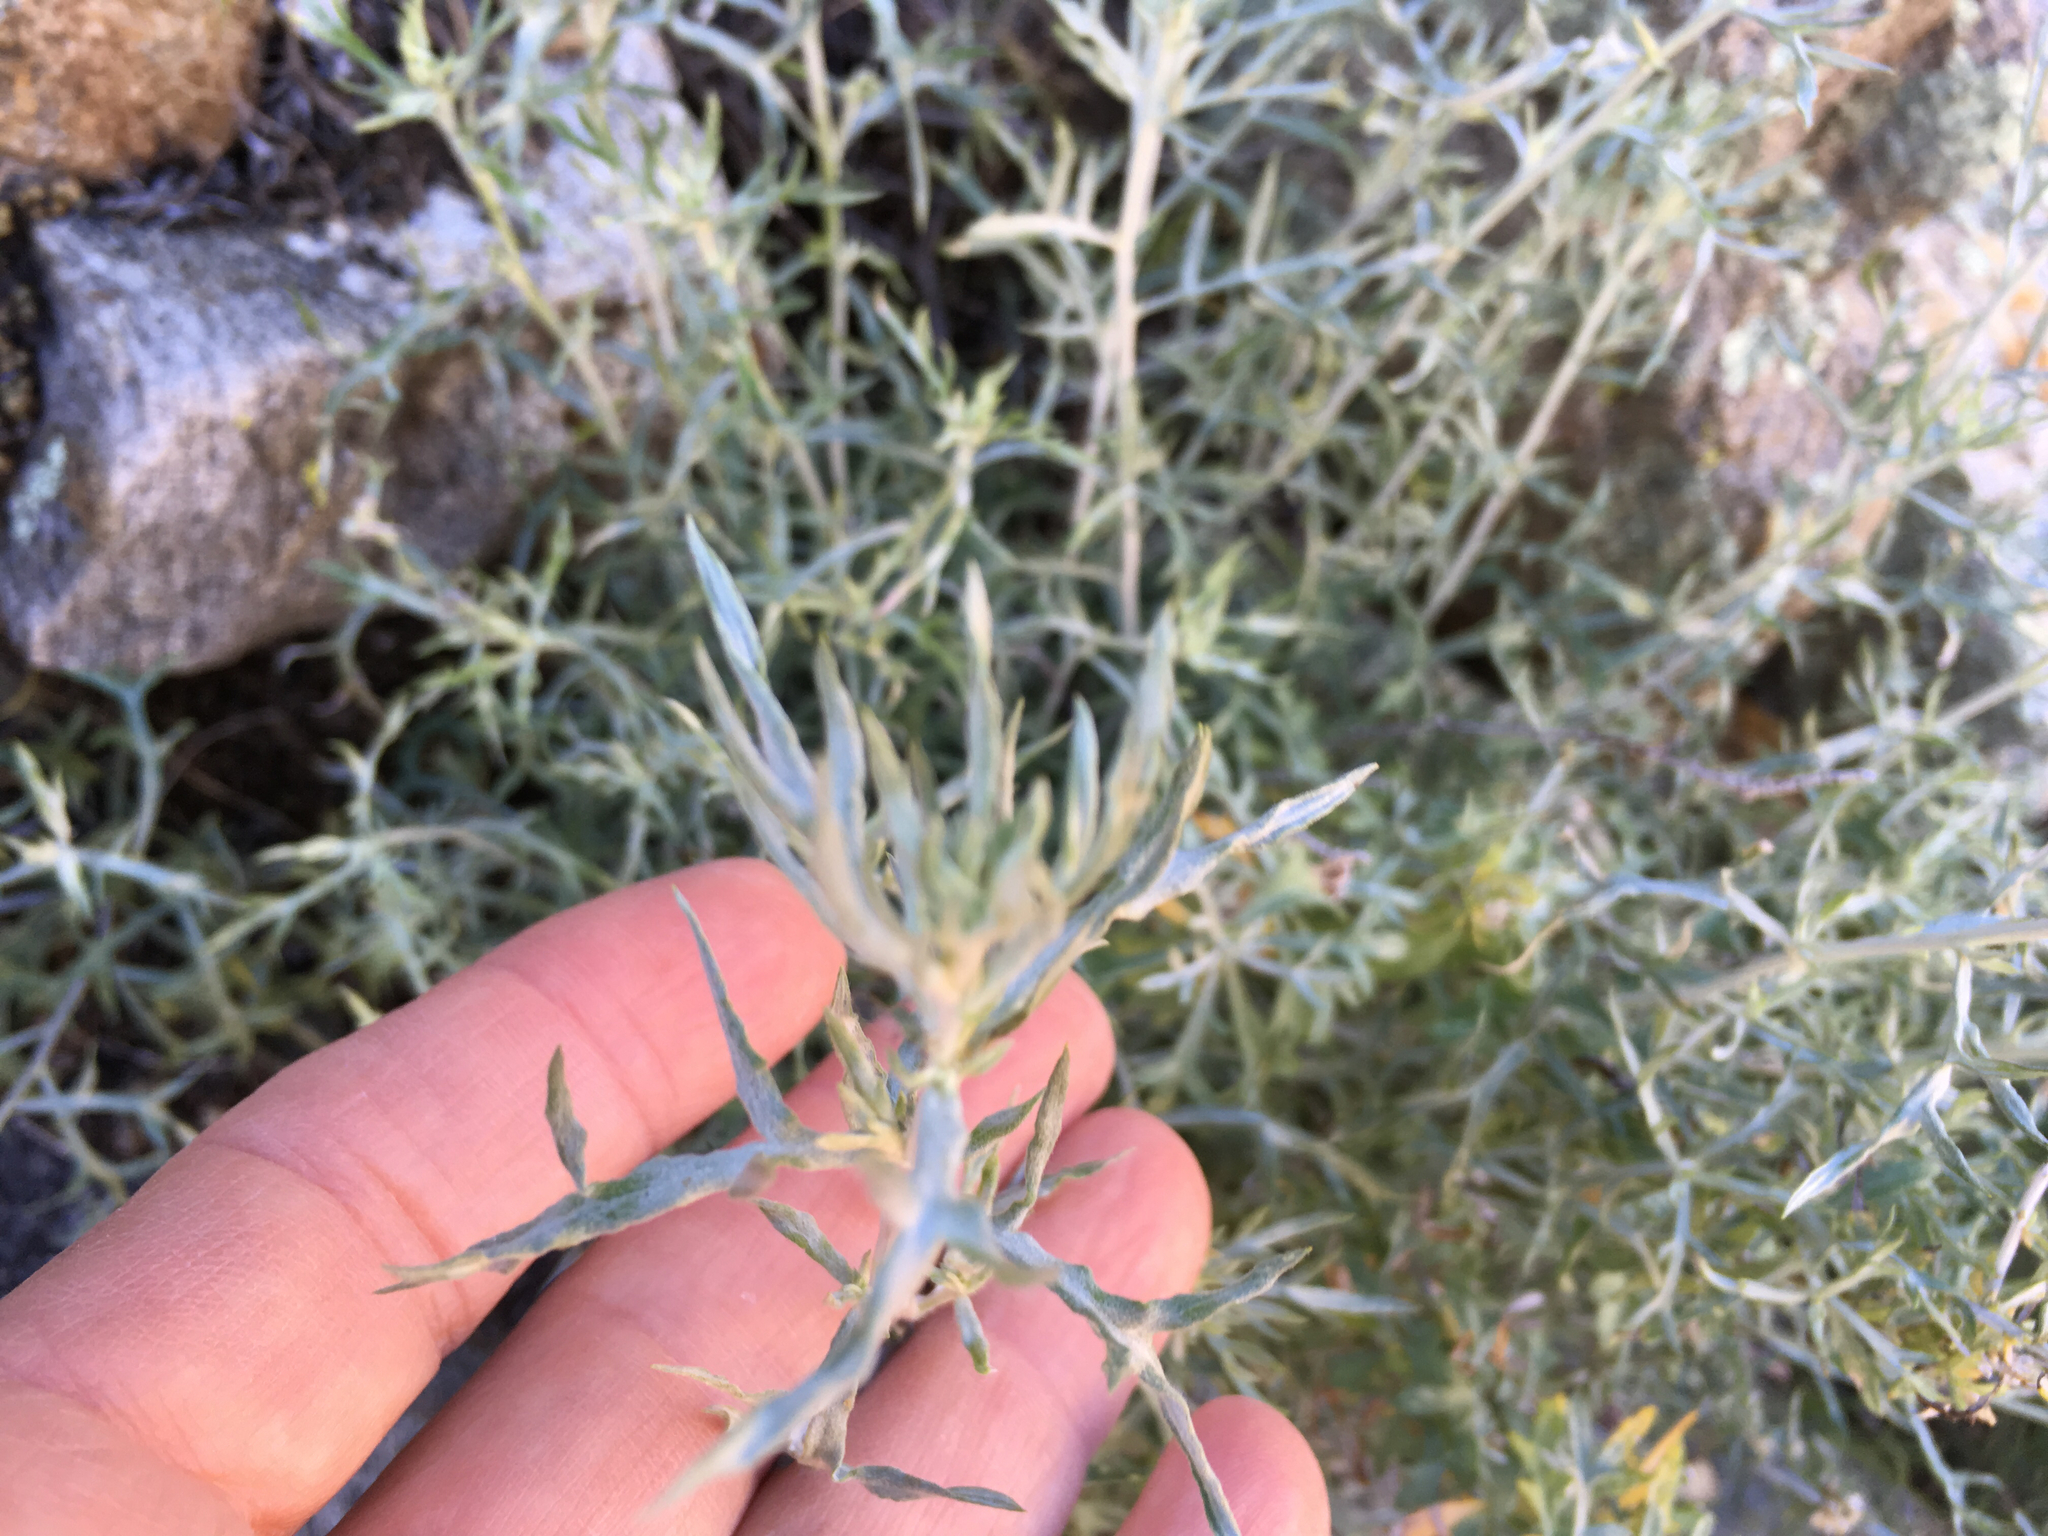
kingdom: Plantae
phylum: Tracheophyta
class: Magnoliopsida
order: Asterales
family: Asteraceae
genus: Artemisia
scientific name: Artemisia ludoviciana
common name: Western mugwort
